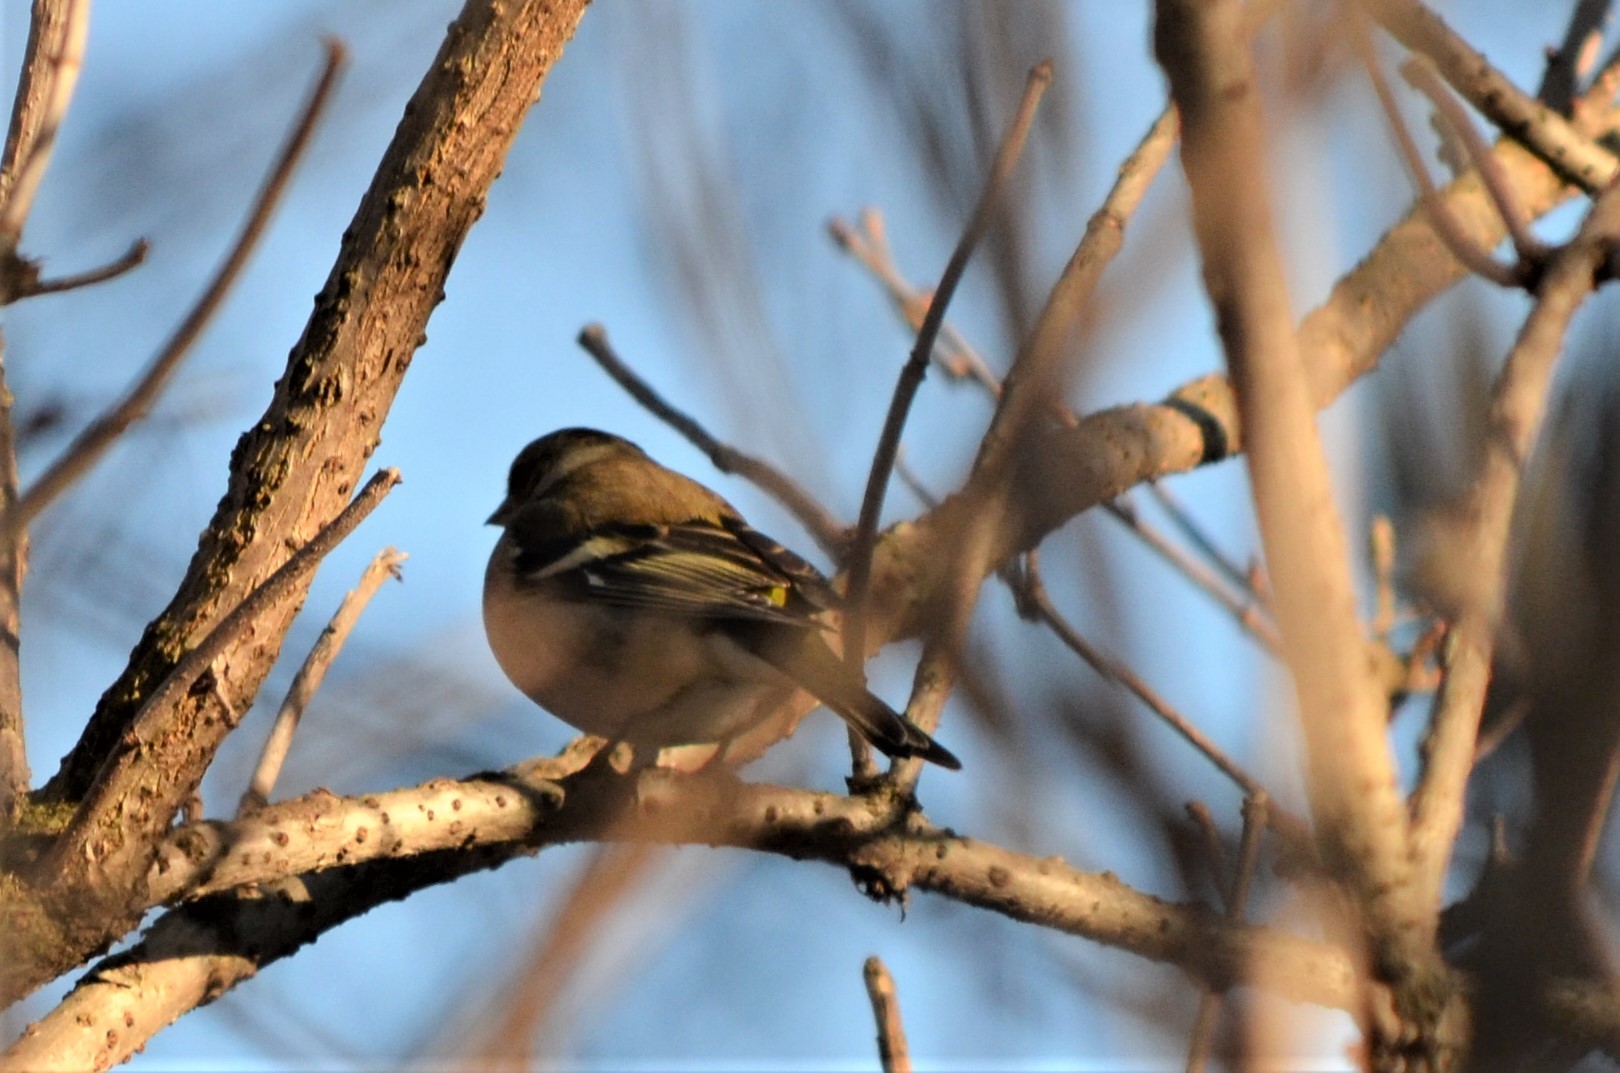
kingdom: Animalia
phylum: Chordata
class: Aves
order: Passeriformes
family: Fringillidae
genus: Fringilla
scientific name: Fringilla coelebs
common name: Common chaffinch
